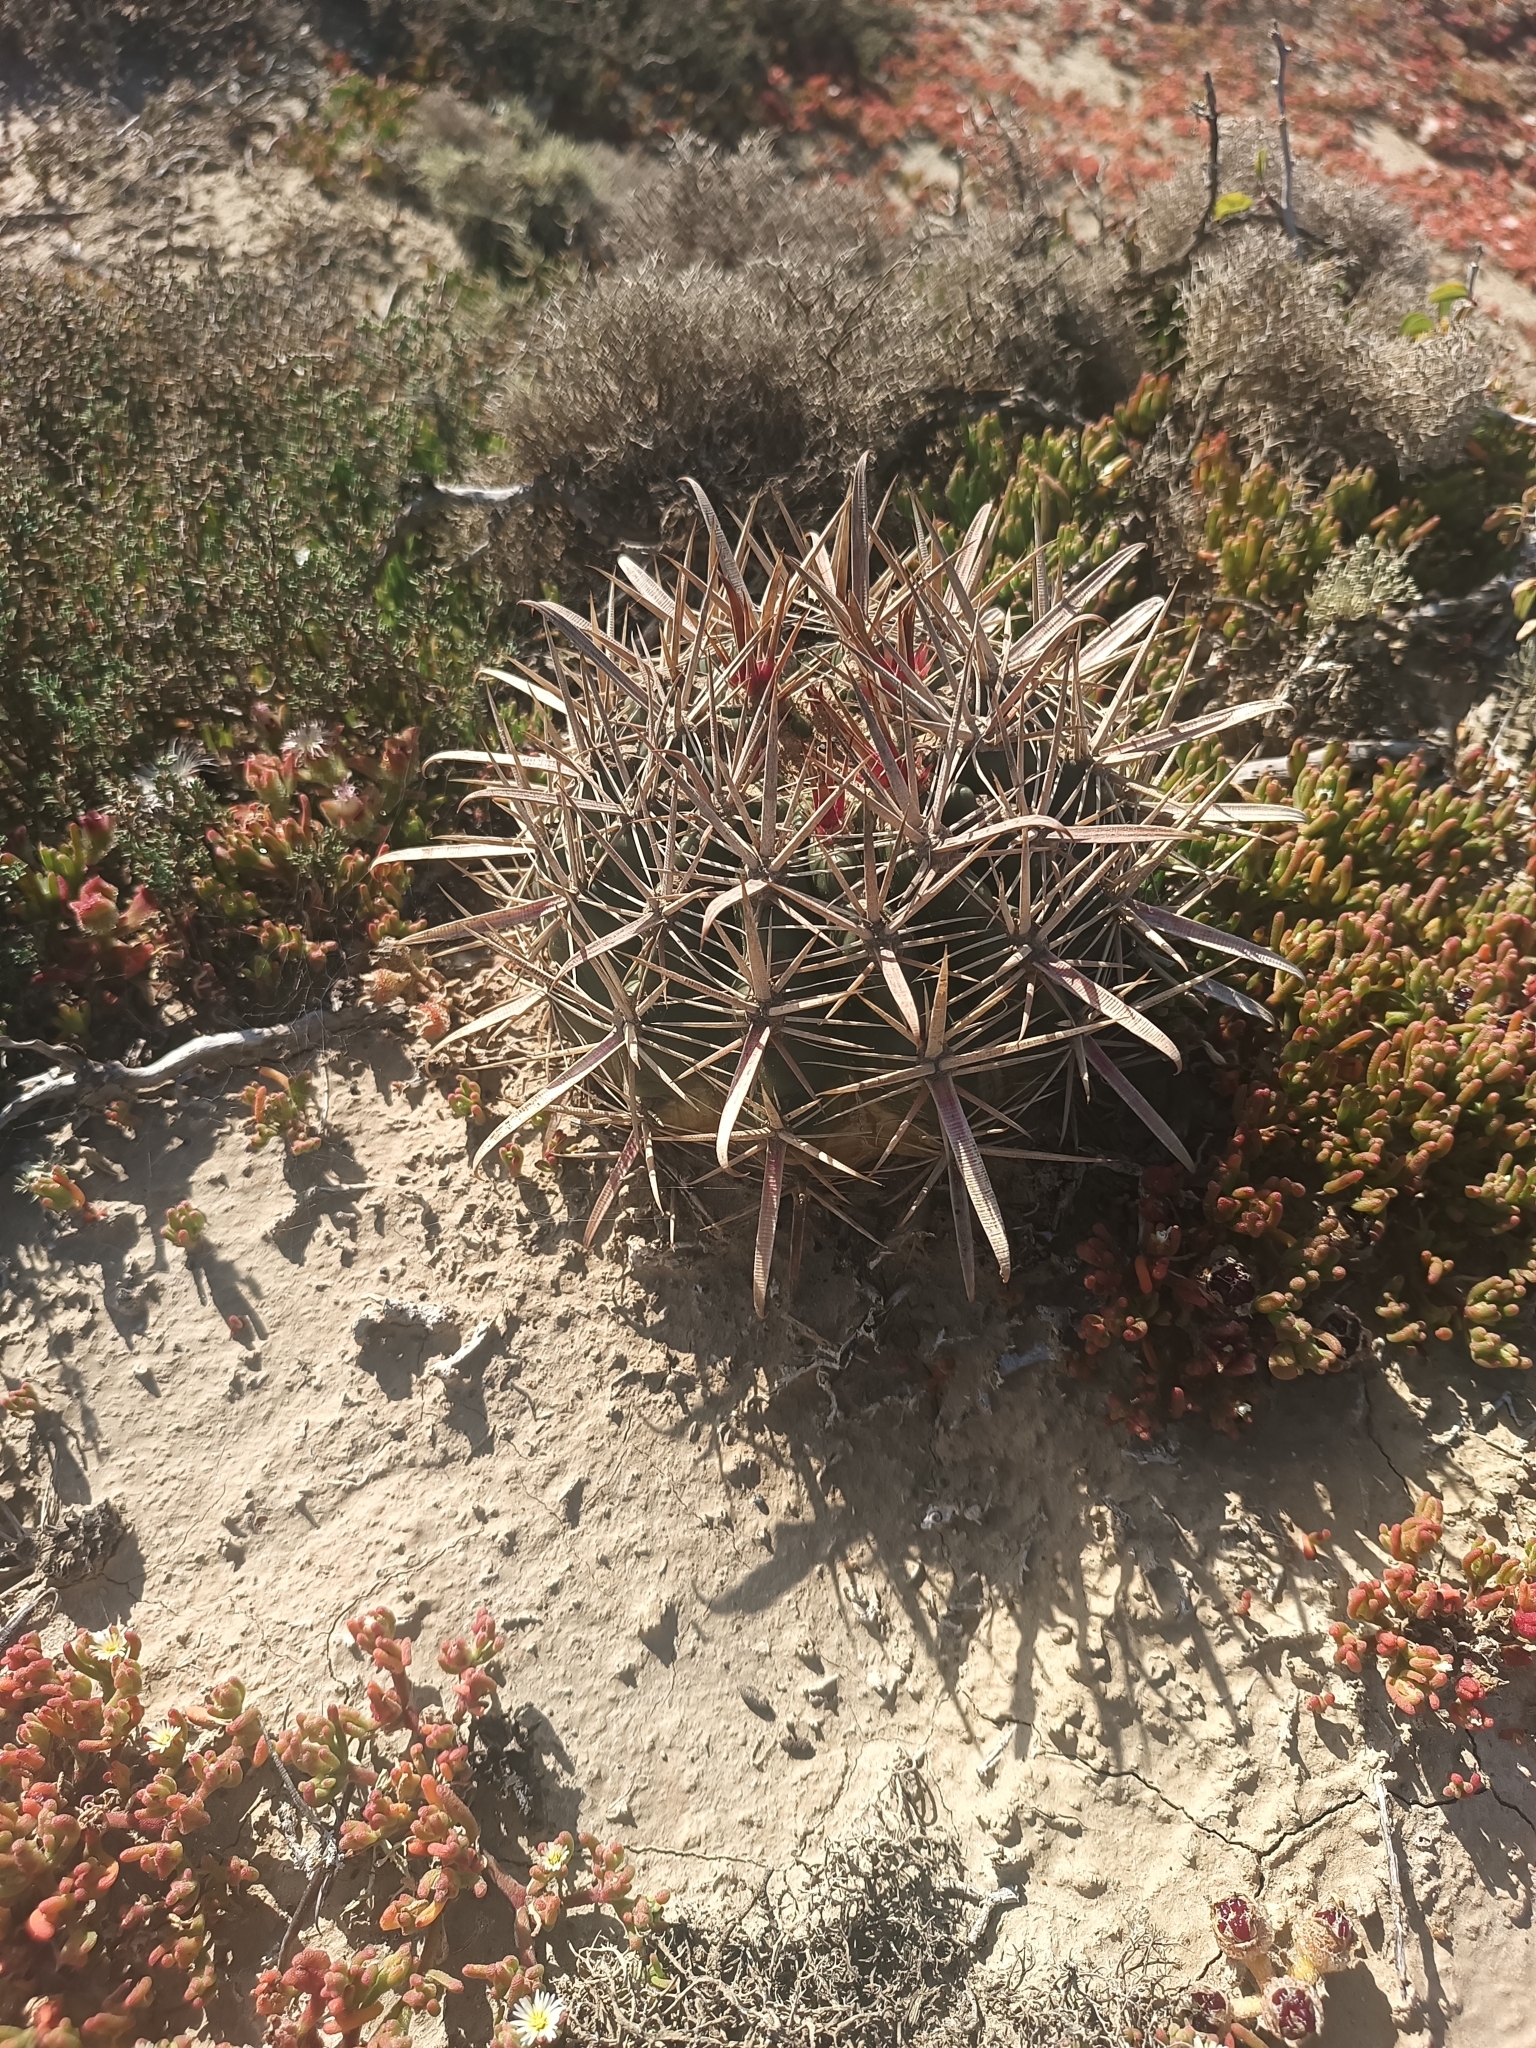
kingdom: Plantae
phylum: Tracheophyta
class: Magnoliopsida
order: Caryophyllales
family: Cactaceae
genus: Ferocactus
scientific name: Ferocactus gracilis
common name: Fire barrel cactus
